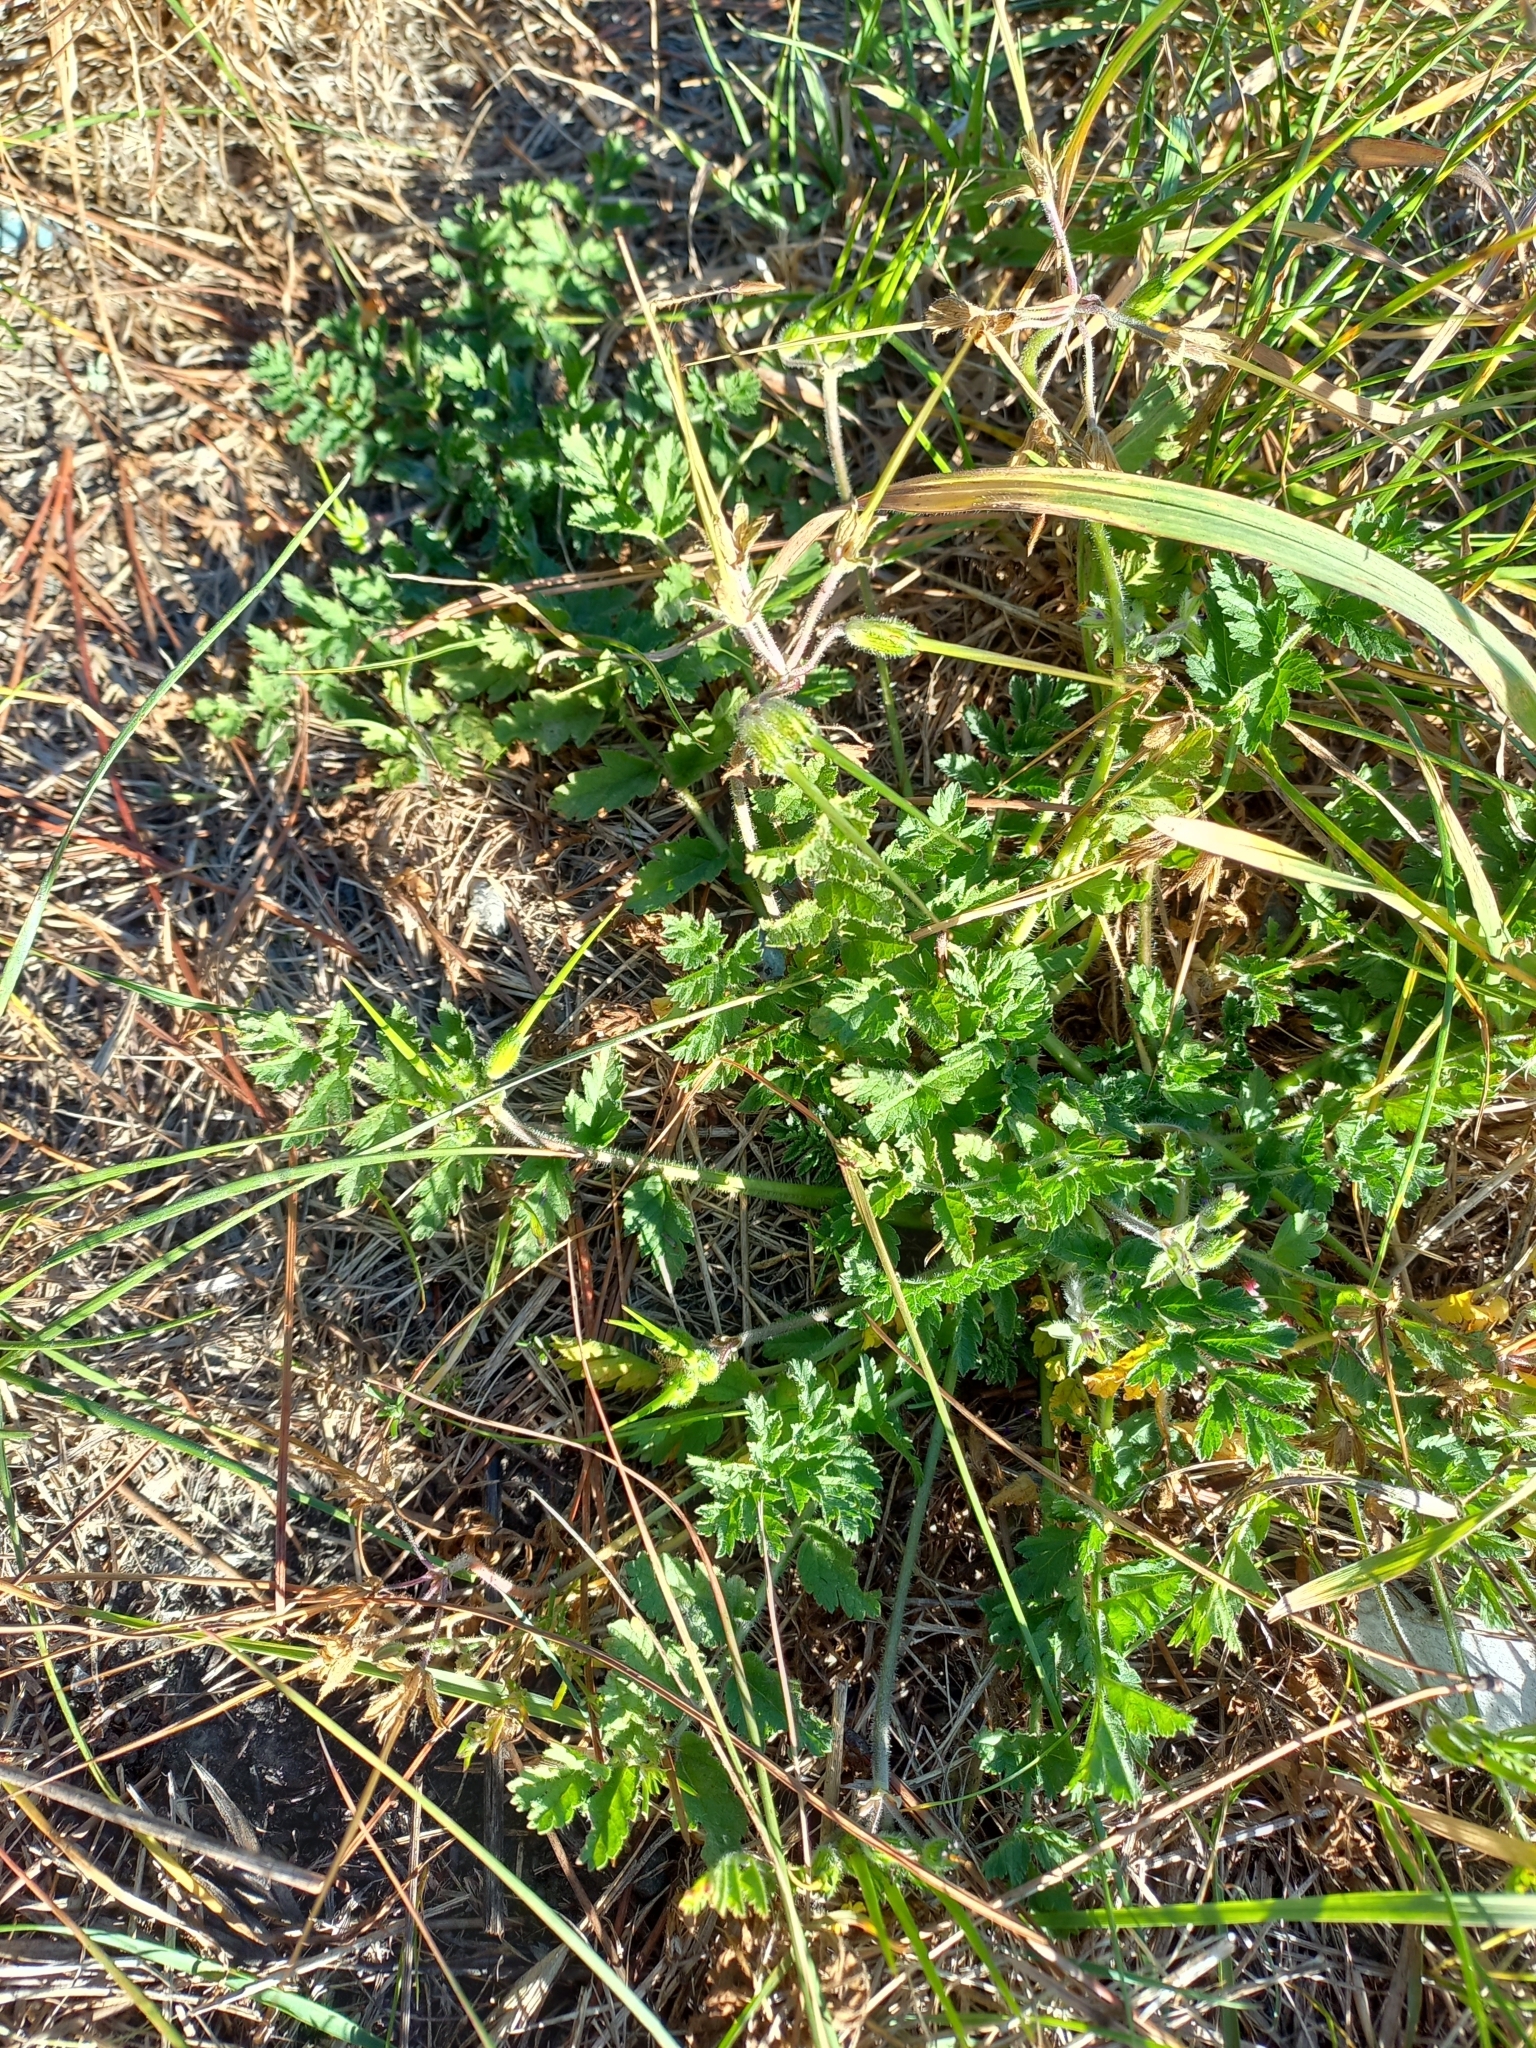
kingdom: Plantae
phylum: Tracheophyta
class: Magnoliopsida
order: Geraniales
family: Geraniaceae
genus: Erodium
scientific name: Erodium moschatum
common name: Musk stork's-bill
